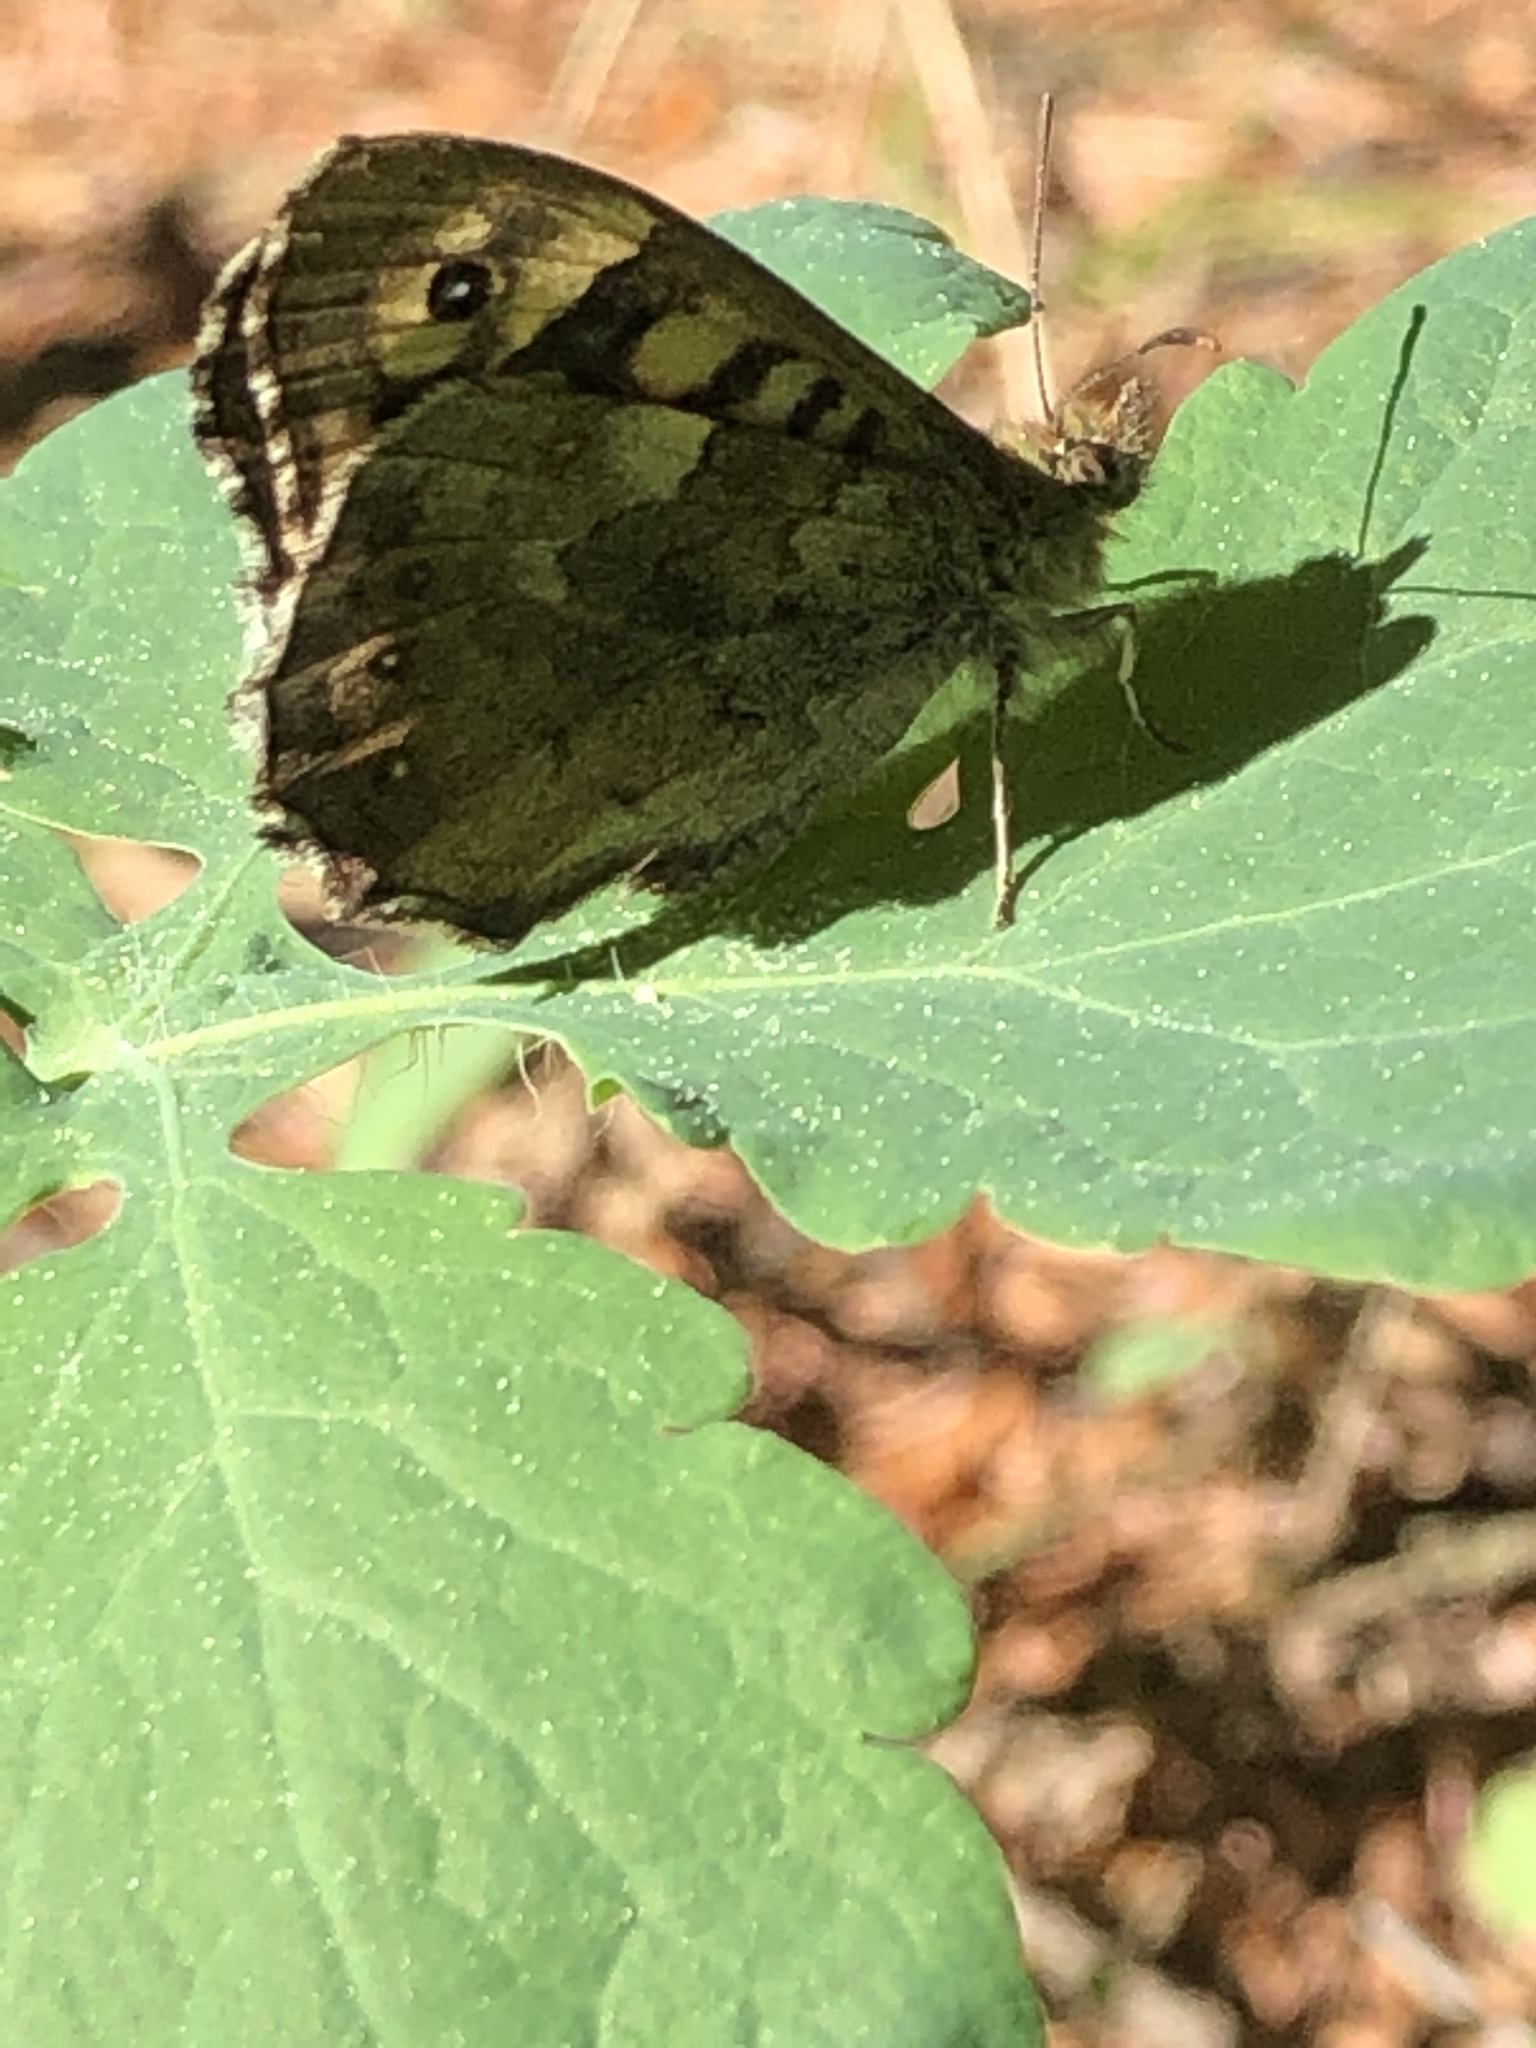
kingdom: Animalia
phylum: Arthropoda
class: Insecta
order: Lepidoptera
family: Nymphalidae
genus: Pararge
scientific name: Pararge aegeria
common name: Speckled wood
